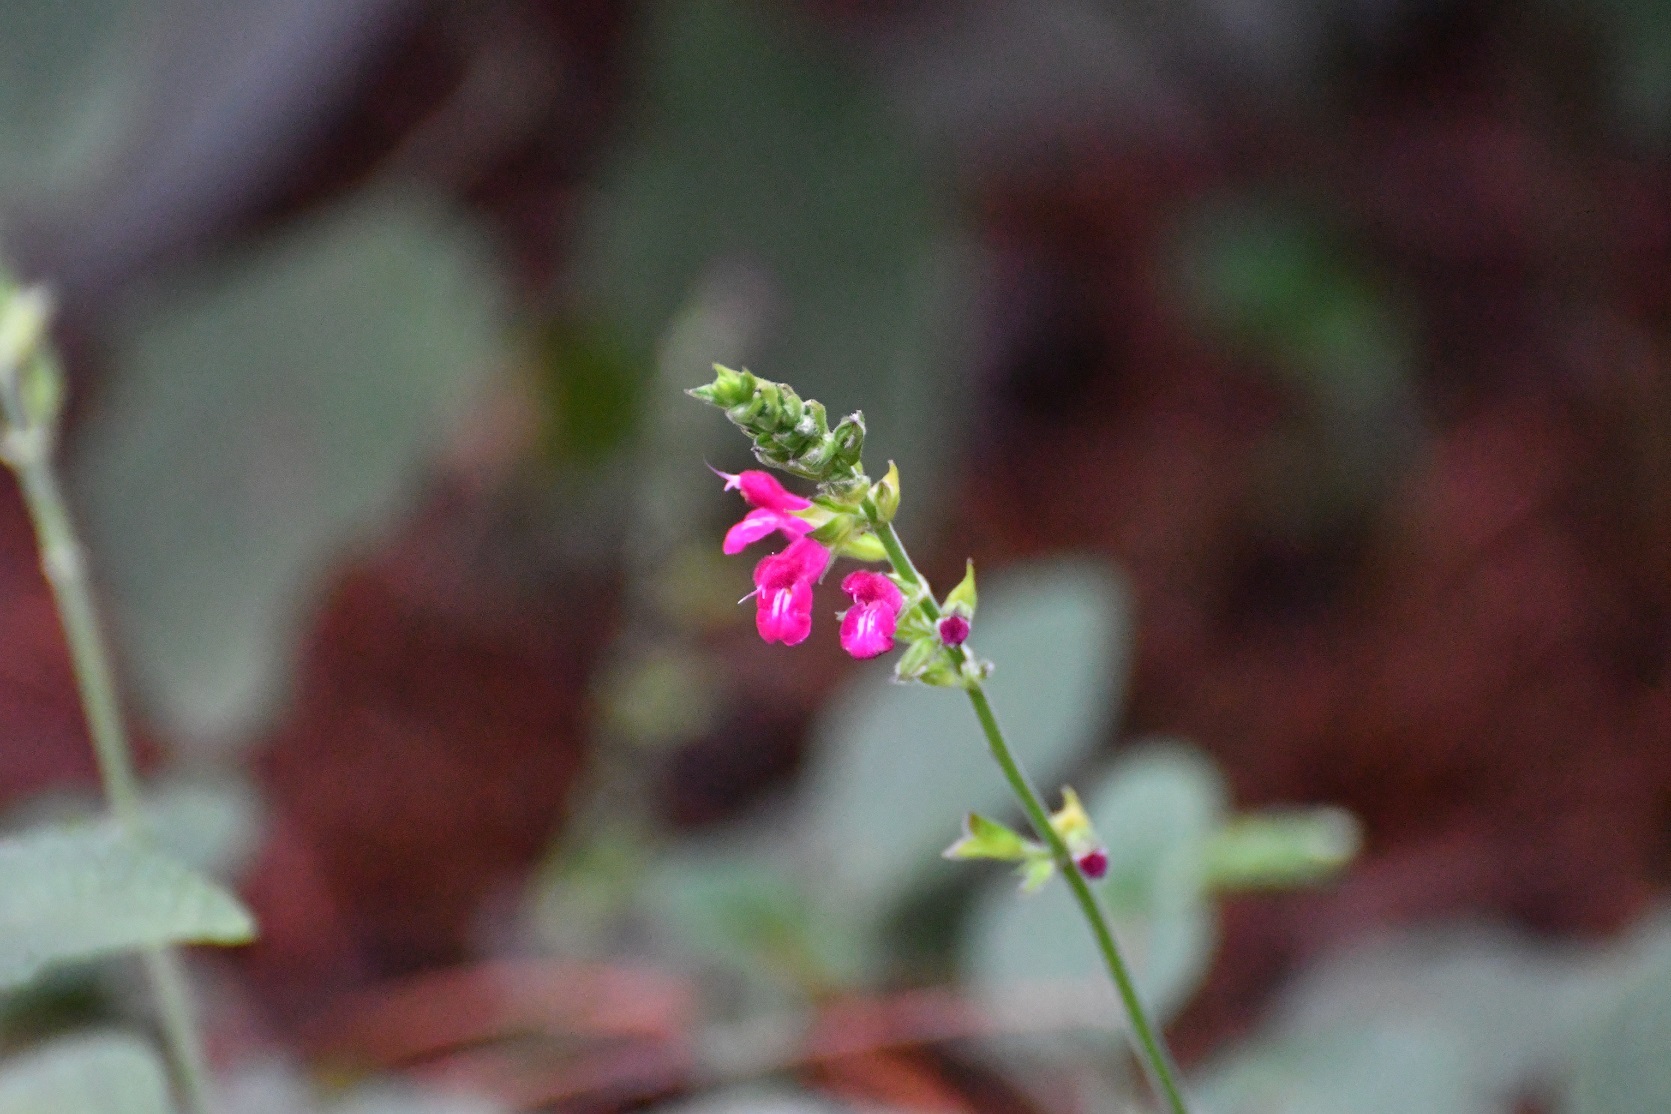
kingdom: Plantae
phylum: Tracheophyta
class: Magnoliopsida
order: Lamiales
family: Lamiaceae
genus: Salvia
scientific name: Salvia chiapensis
